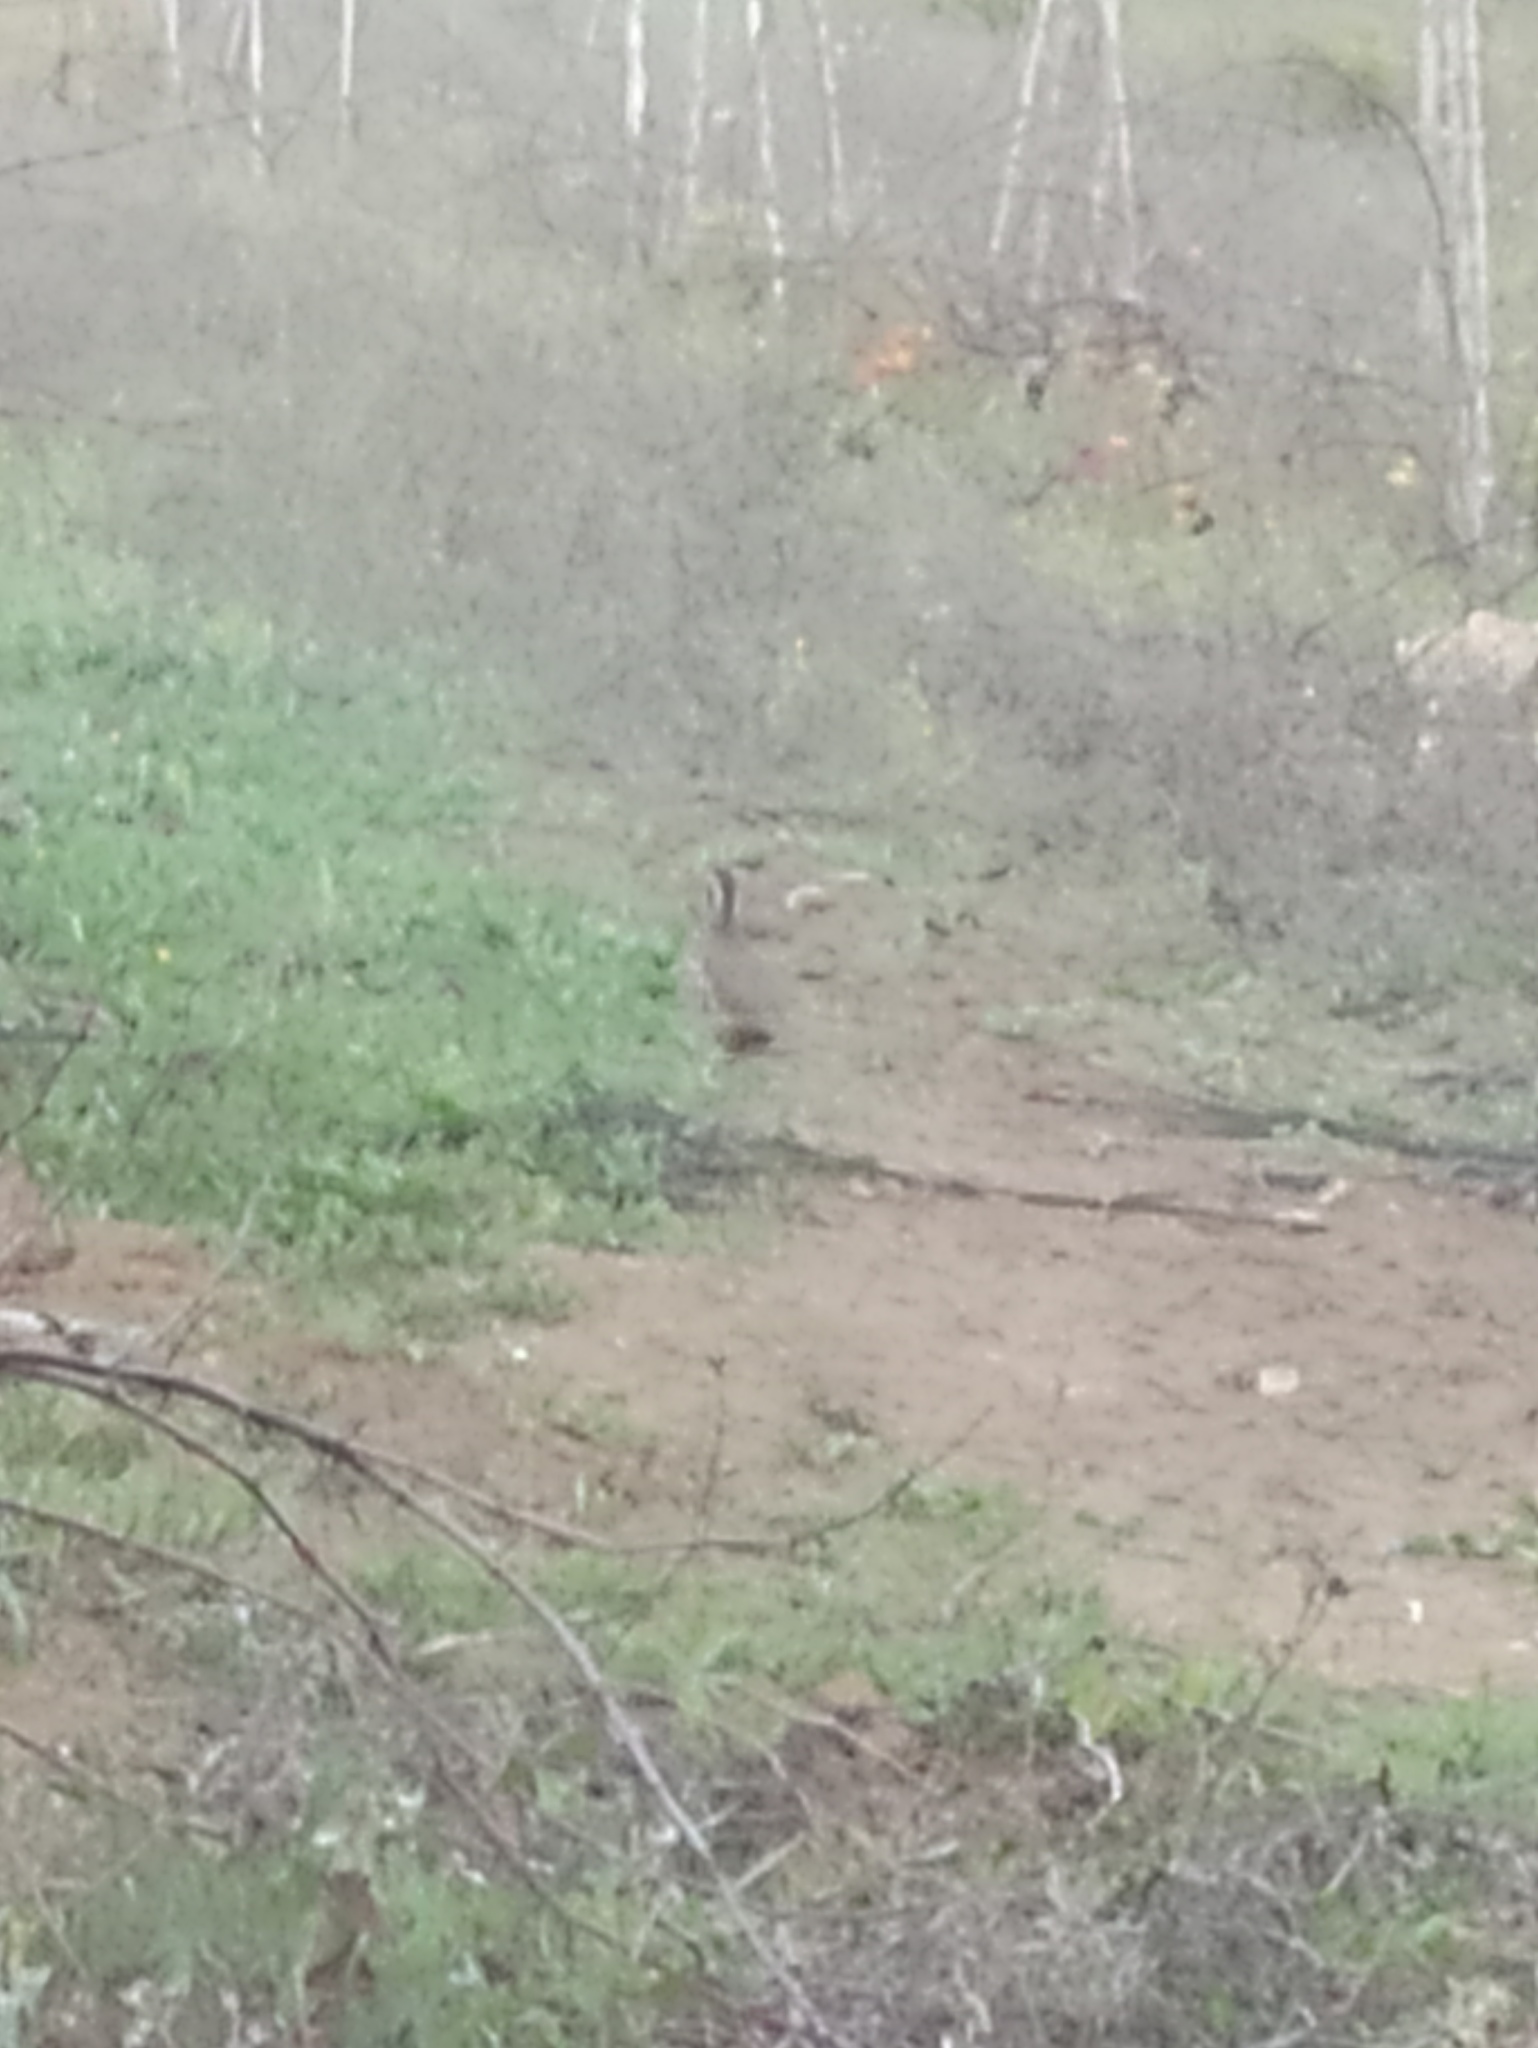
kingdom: Animalia
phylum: Chordata
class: Aves
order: Galliformes
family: Phasianidae
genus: Alectoris
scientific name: Alectoris rufa
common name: Red-legged partridge
